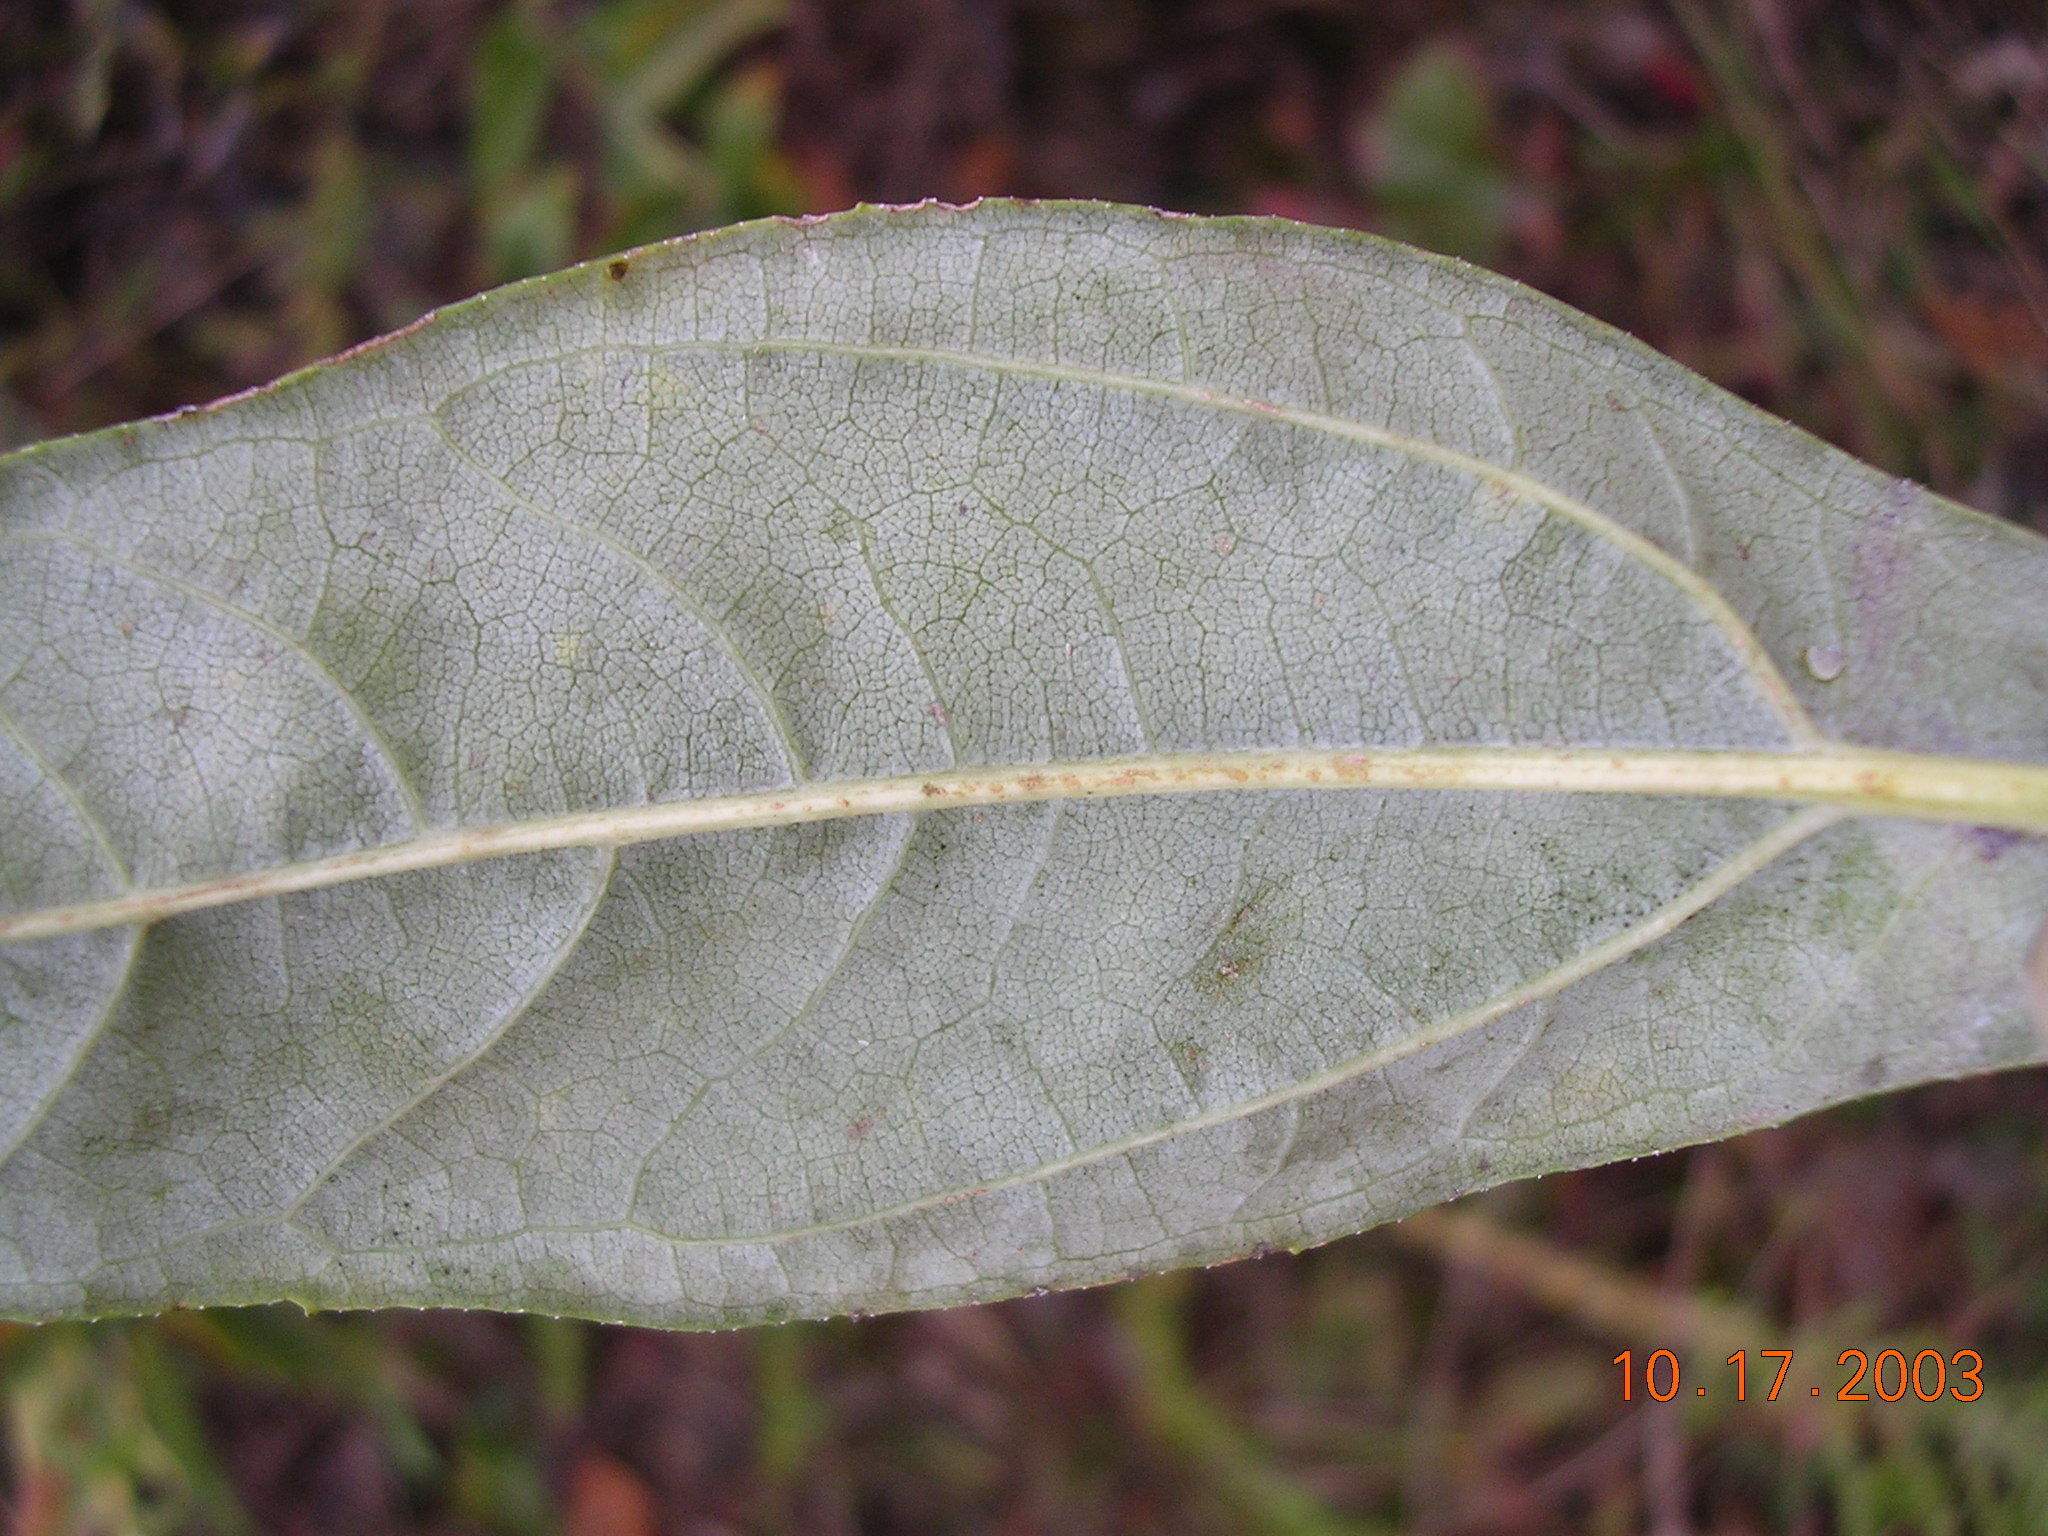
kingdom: Plantae
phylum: Tracheophyta
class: Magnoliopsida
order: Asterales
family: Asteraceae
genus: Helianthus
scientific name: Helianthus eggertii
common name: Eggert's sunflower
